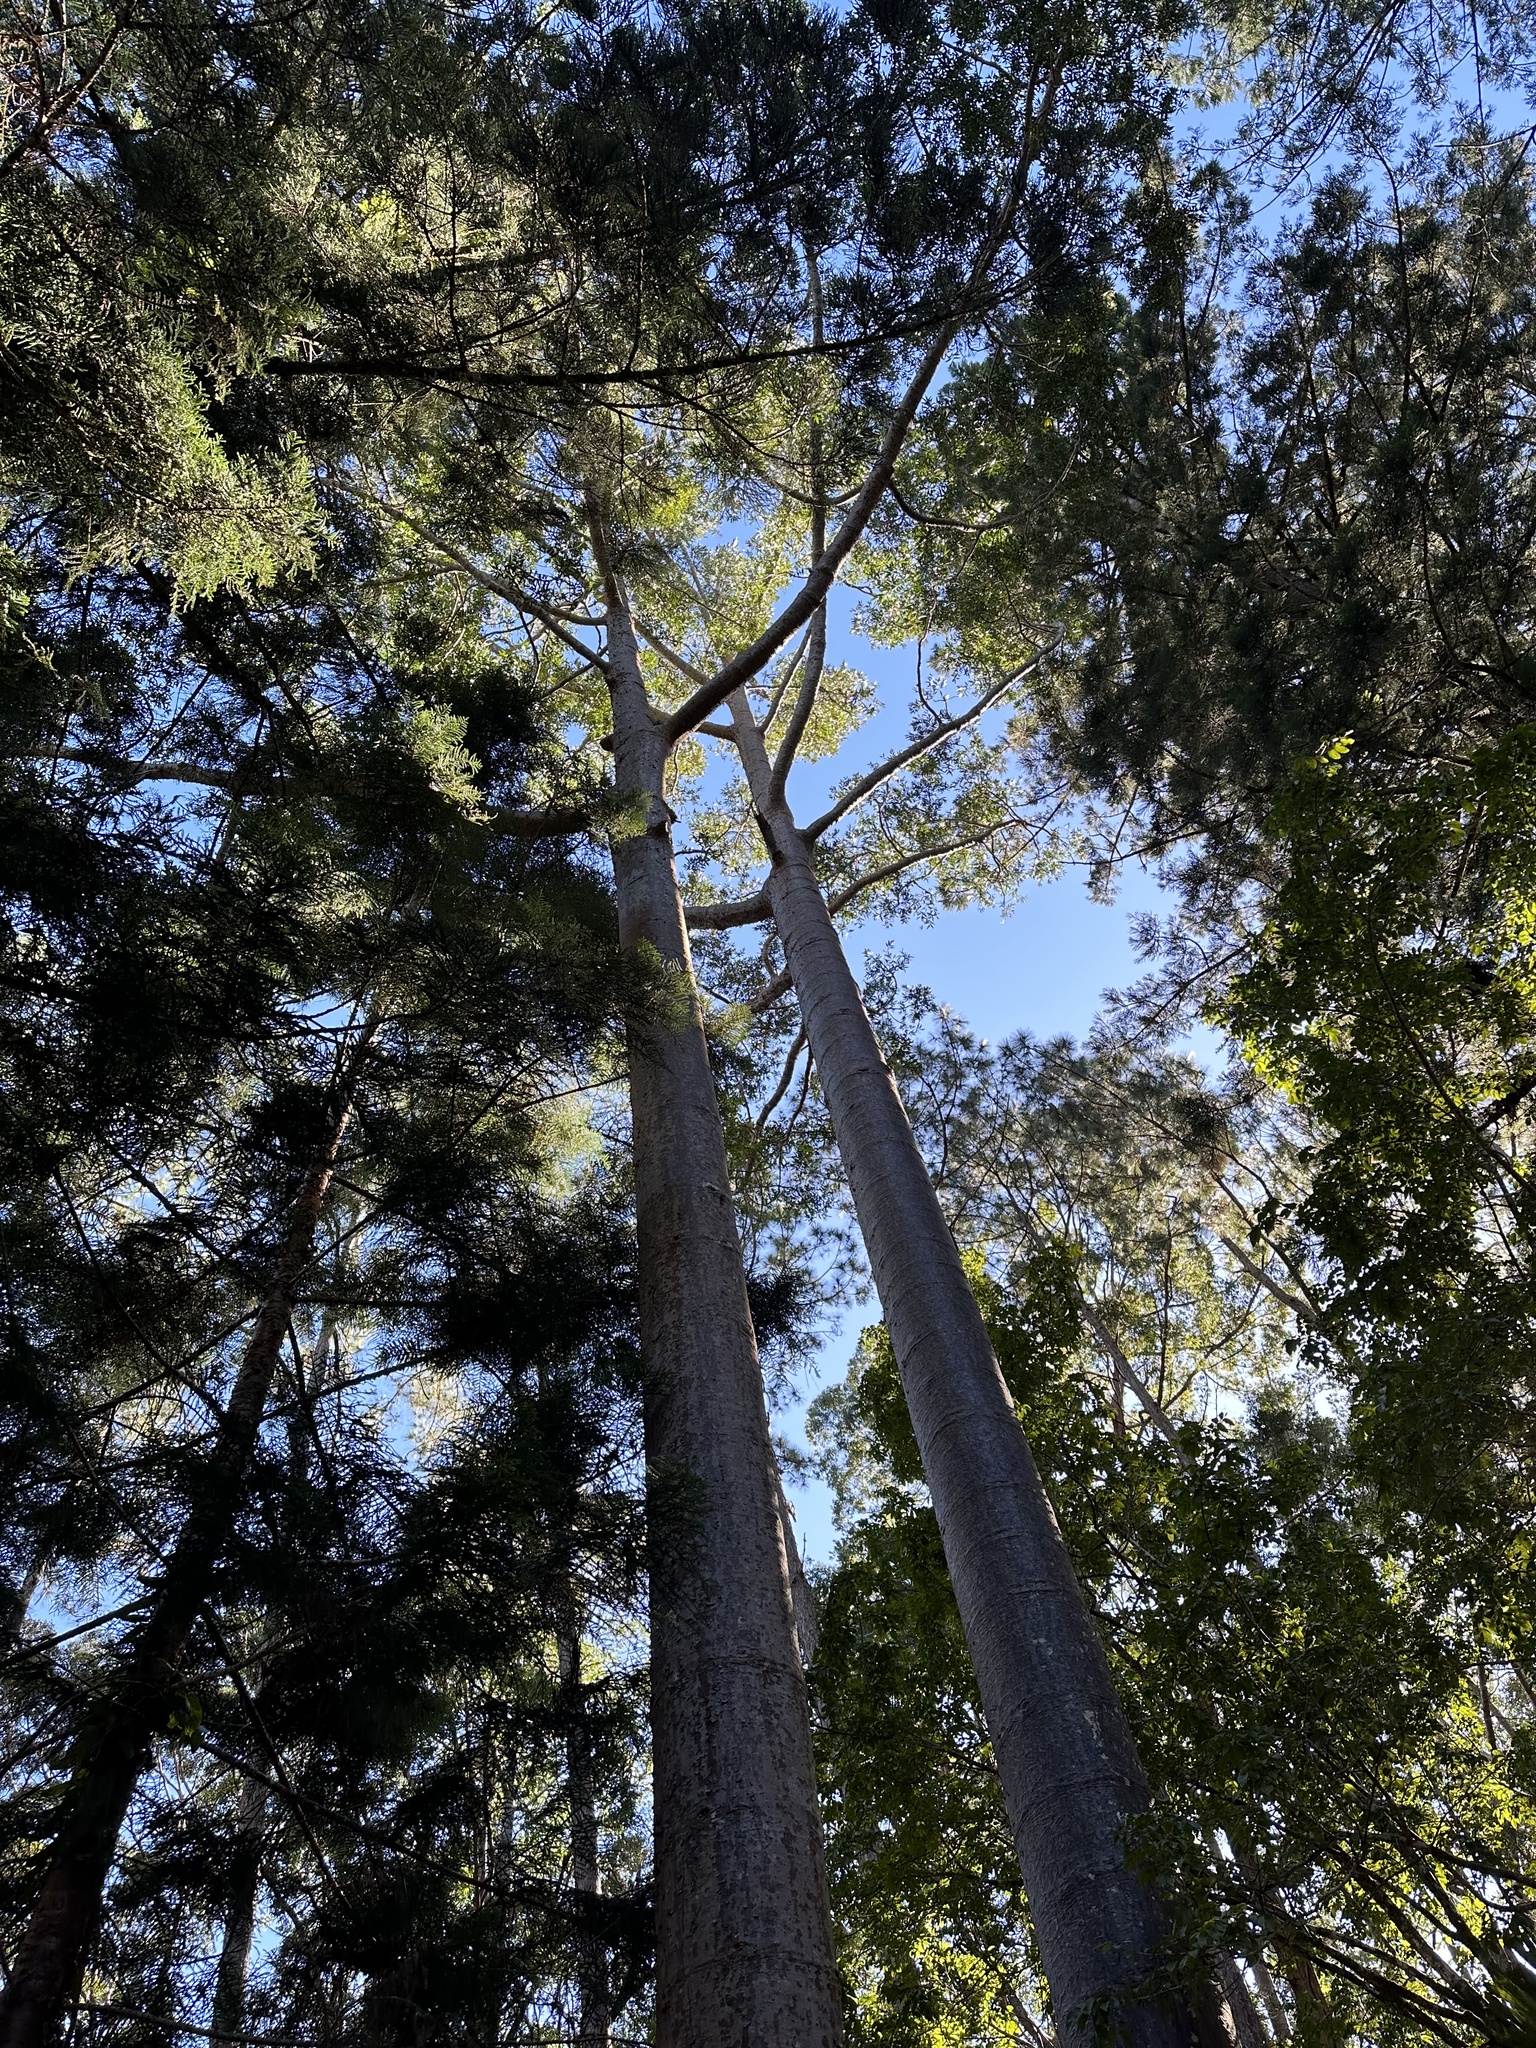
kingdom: Plantae
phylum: Tracheophyta
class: Pinopsida
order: Pinales
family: Araucariaceae
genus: Agathis
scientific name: Agathis robusta
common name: Australian-kauri
